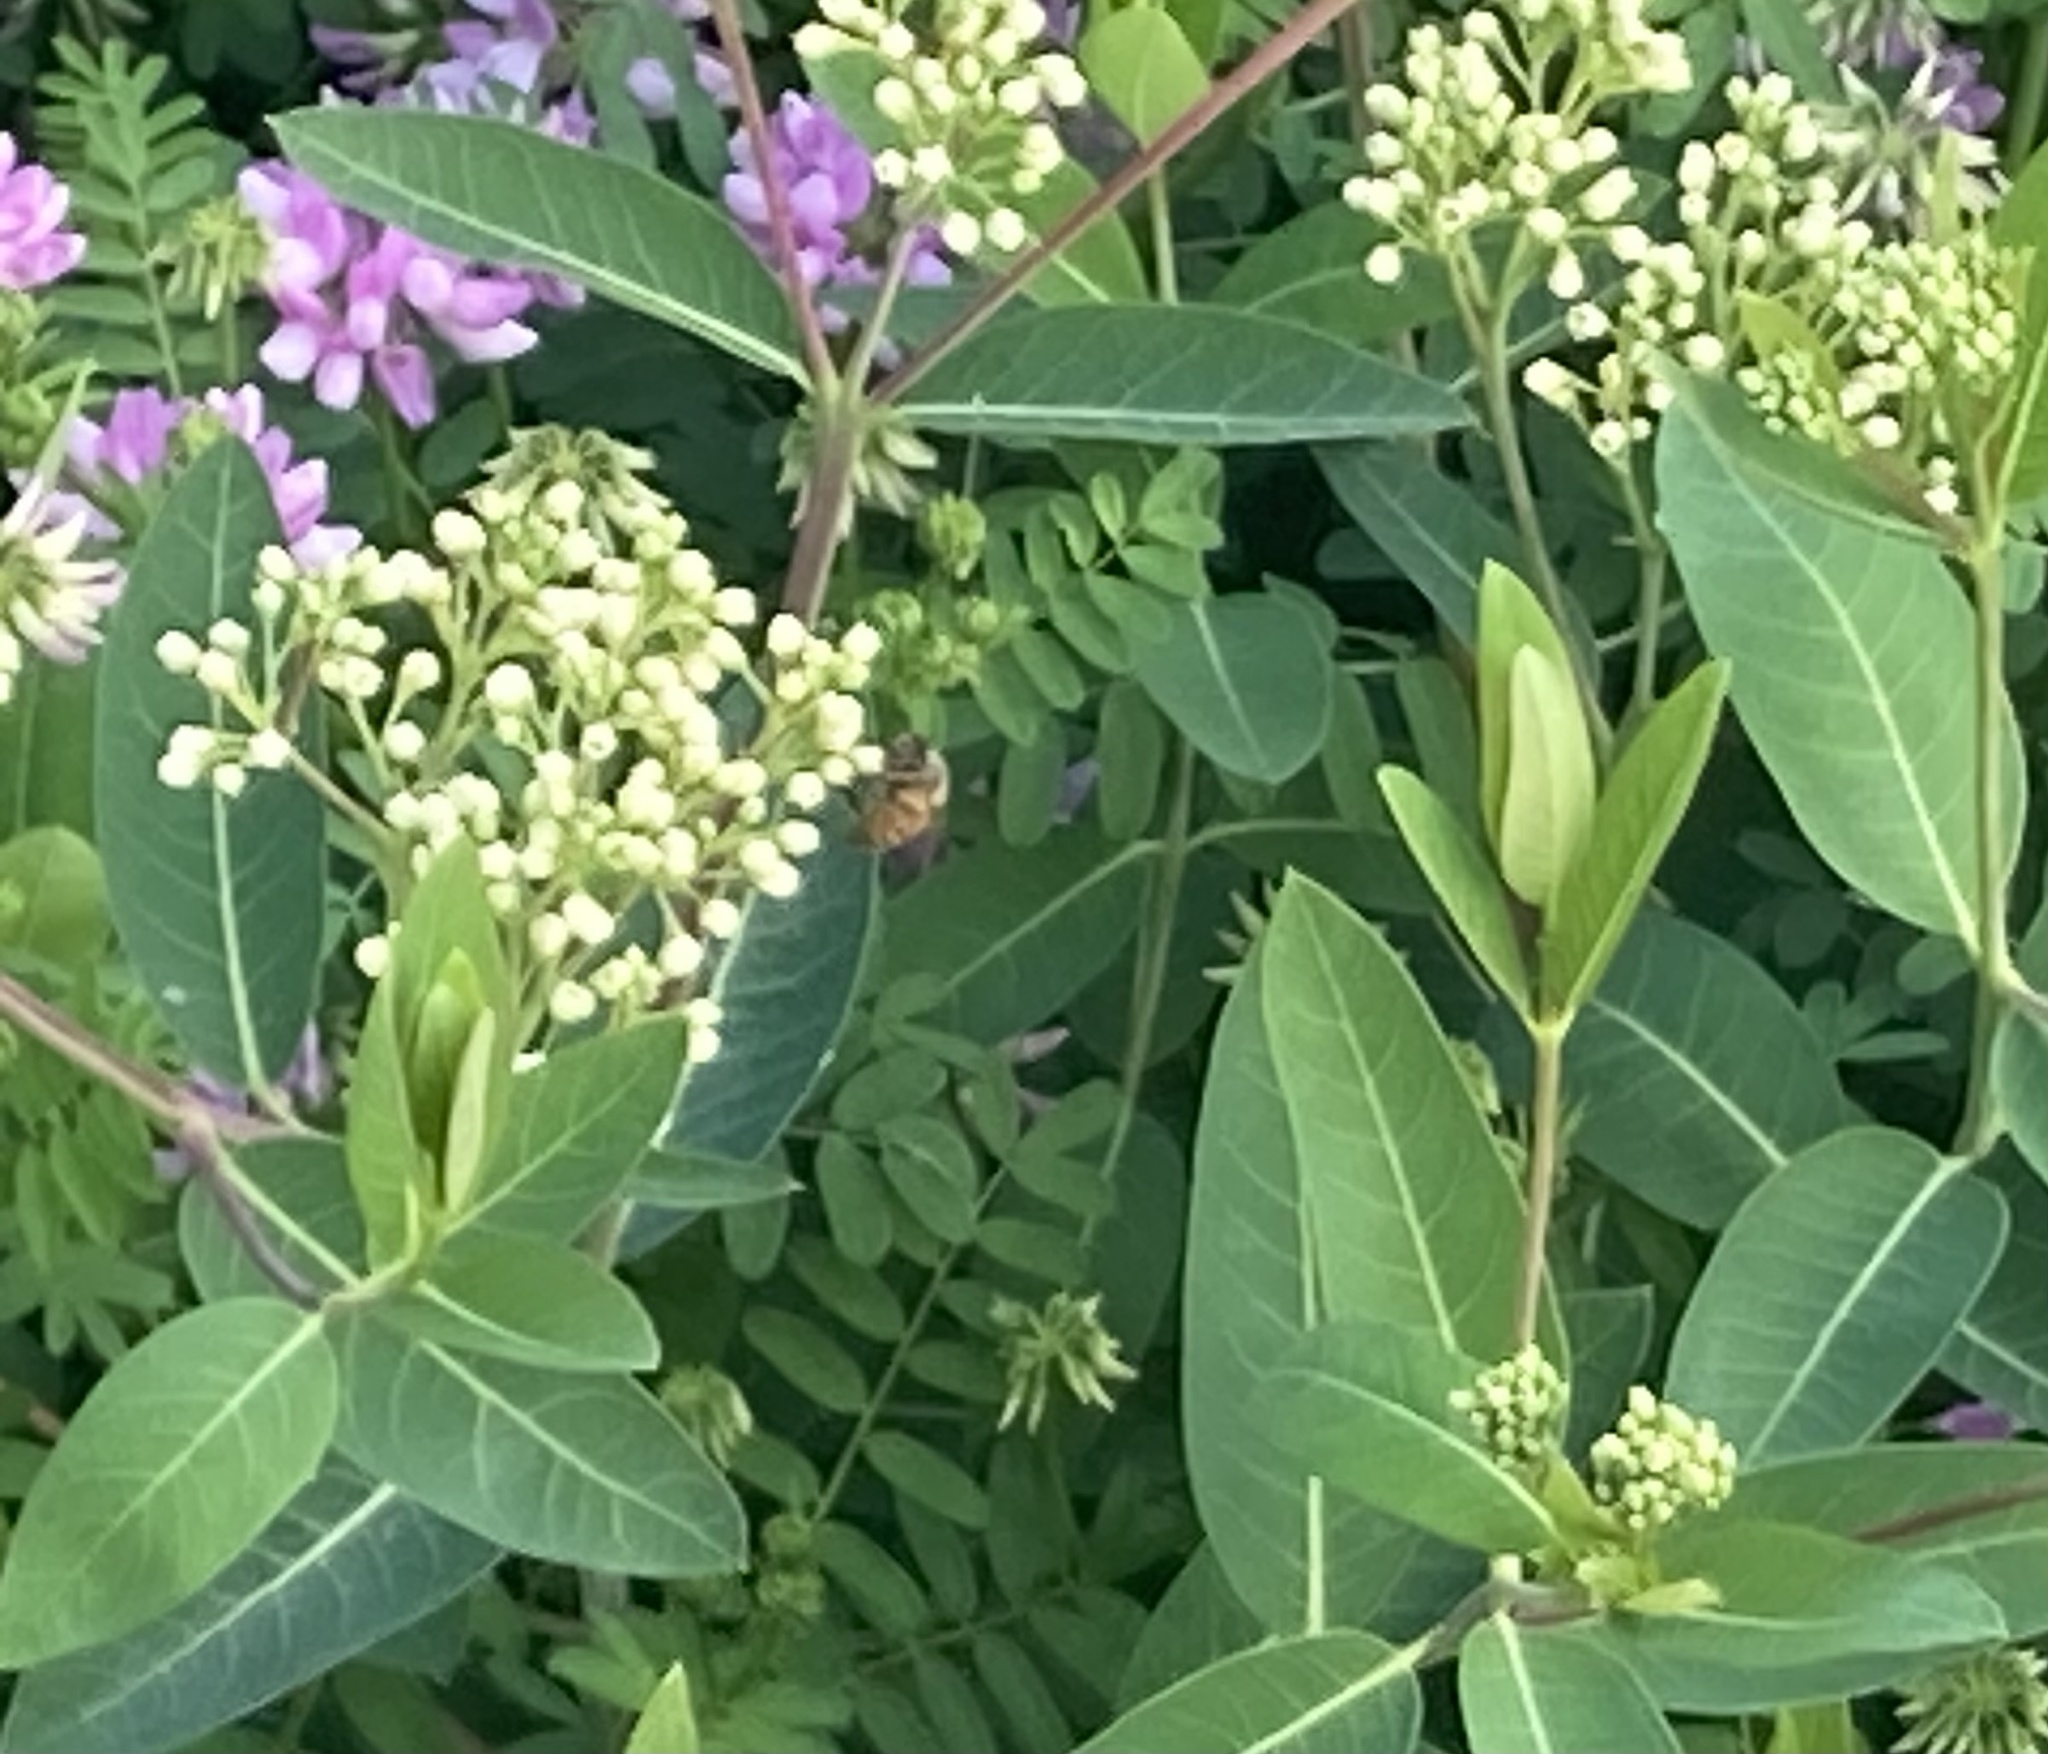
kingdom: Animalia
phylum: Arthropoda
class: Insecta
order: Hymenoptera
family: Apidae
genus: Apis
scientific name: Apis mellifera
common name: Honey bee
